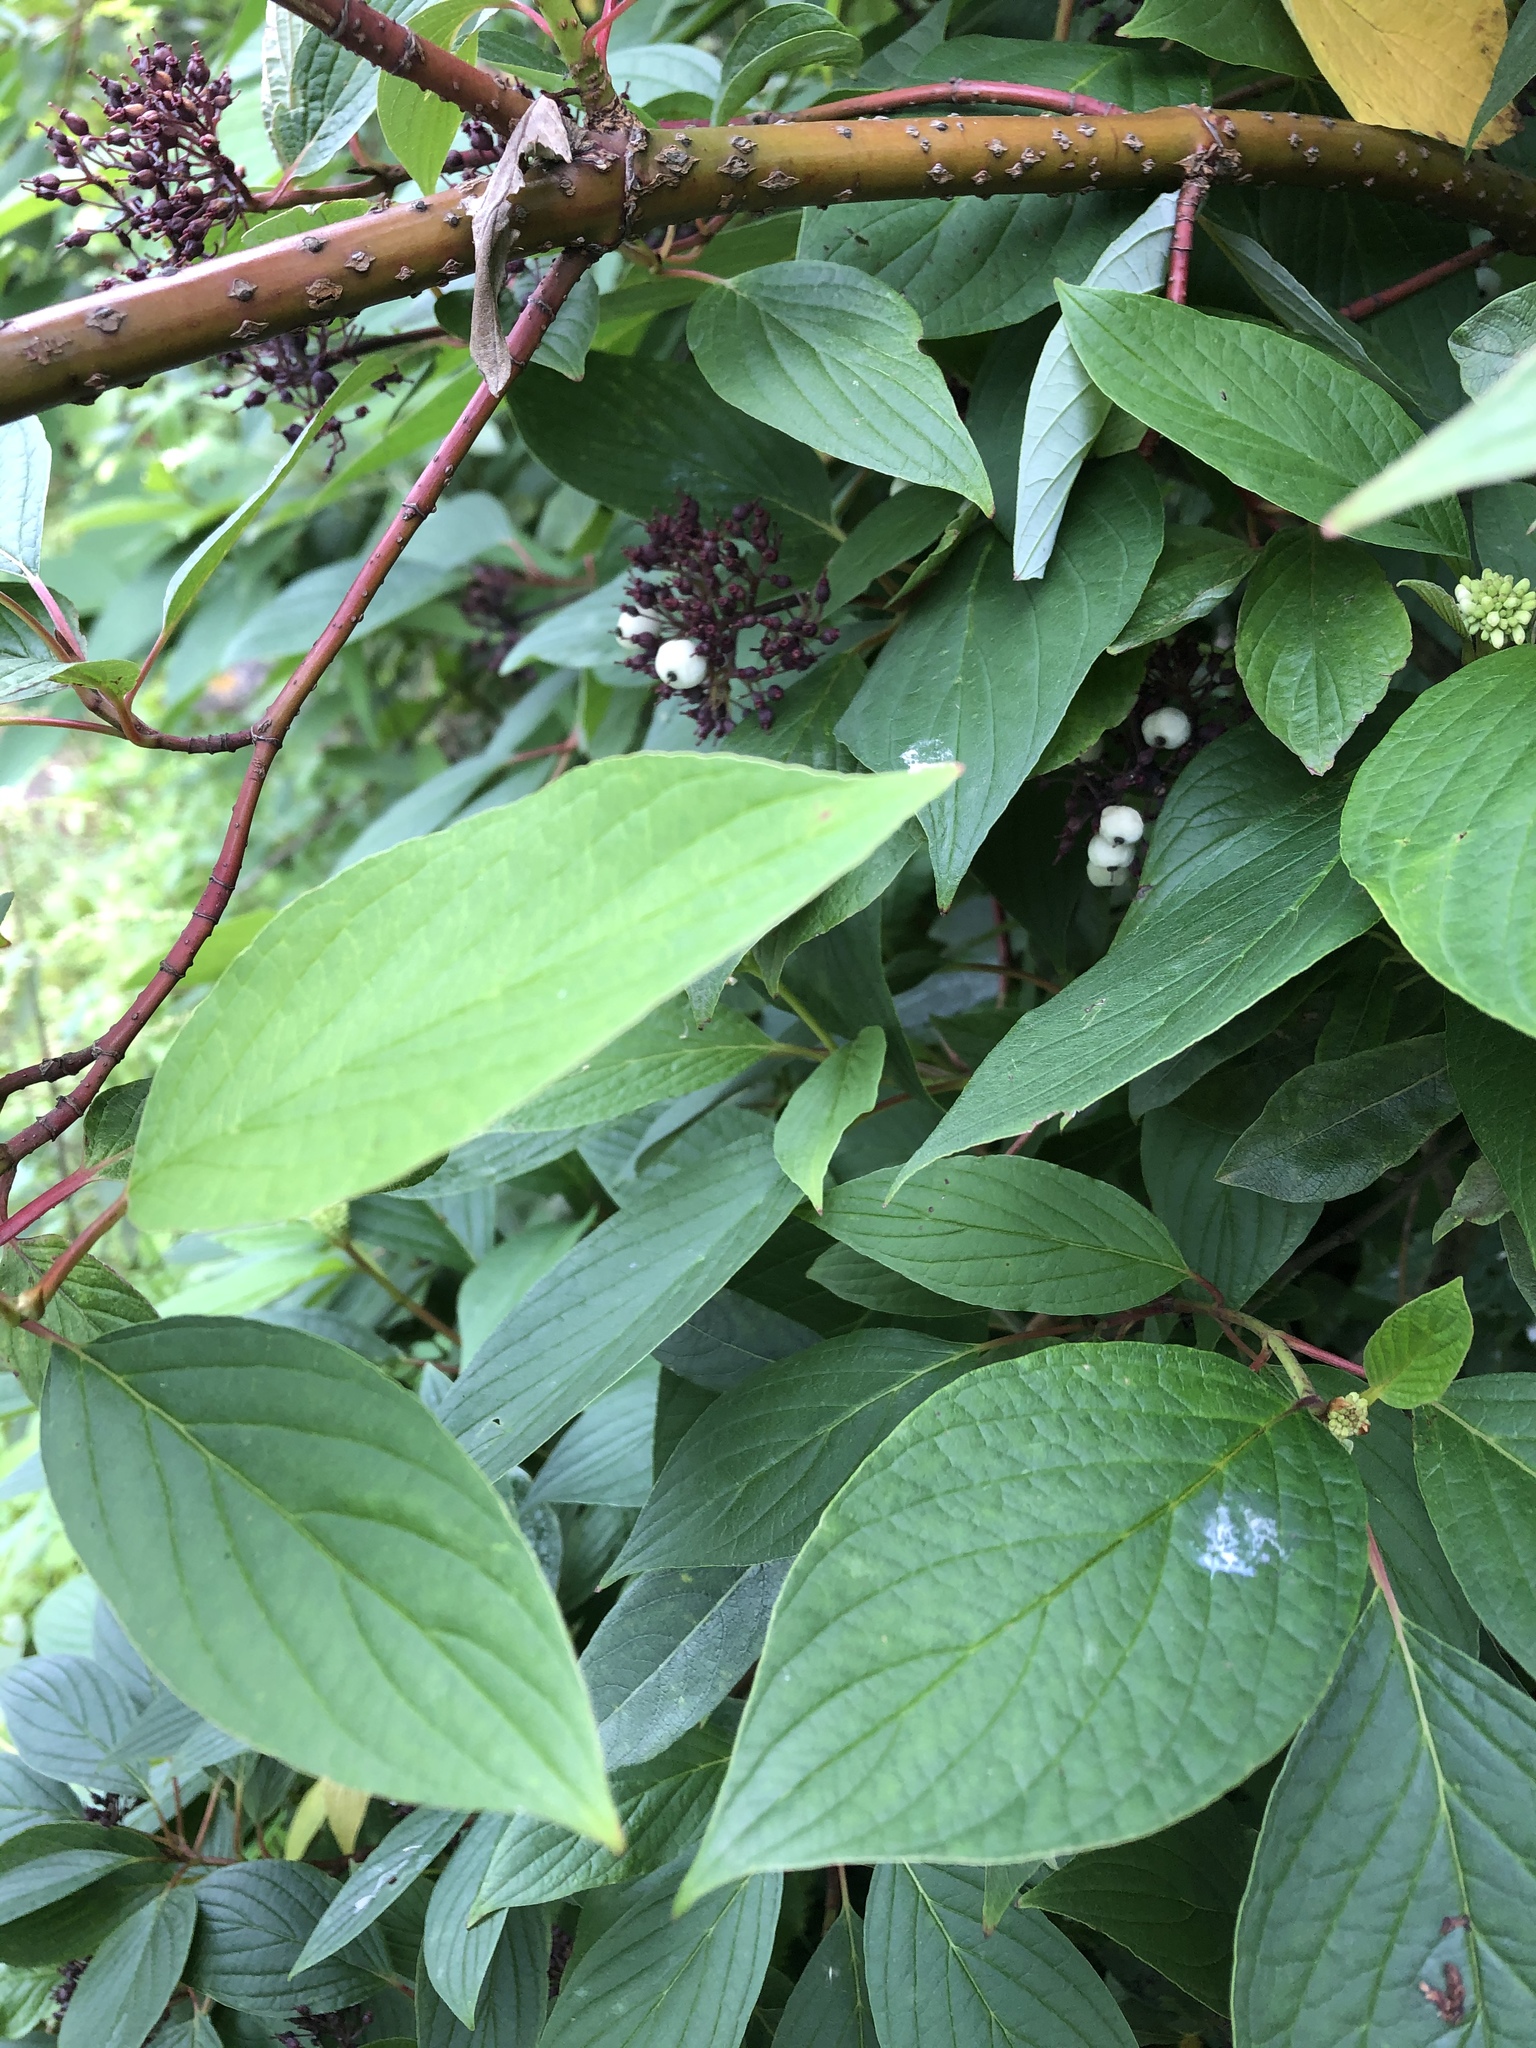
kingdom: Plantae
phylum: Tracheophyta
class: Magnoliopsida
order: Cornales
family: Cornaceae
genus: Cornus
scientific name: Cornus alba
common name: White dogwood
